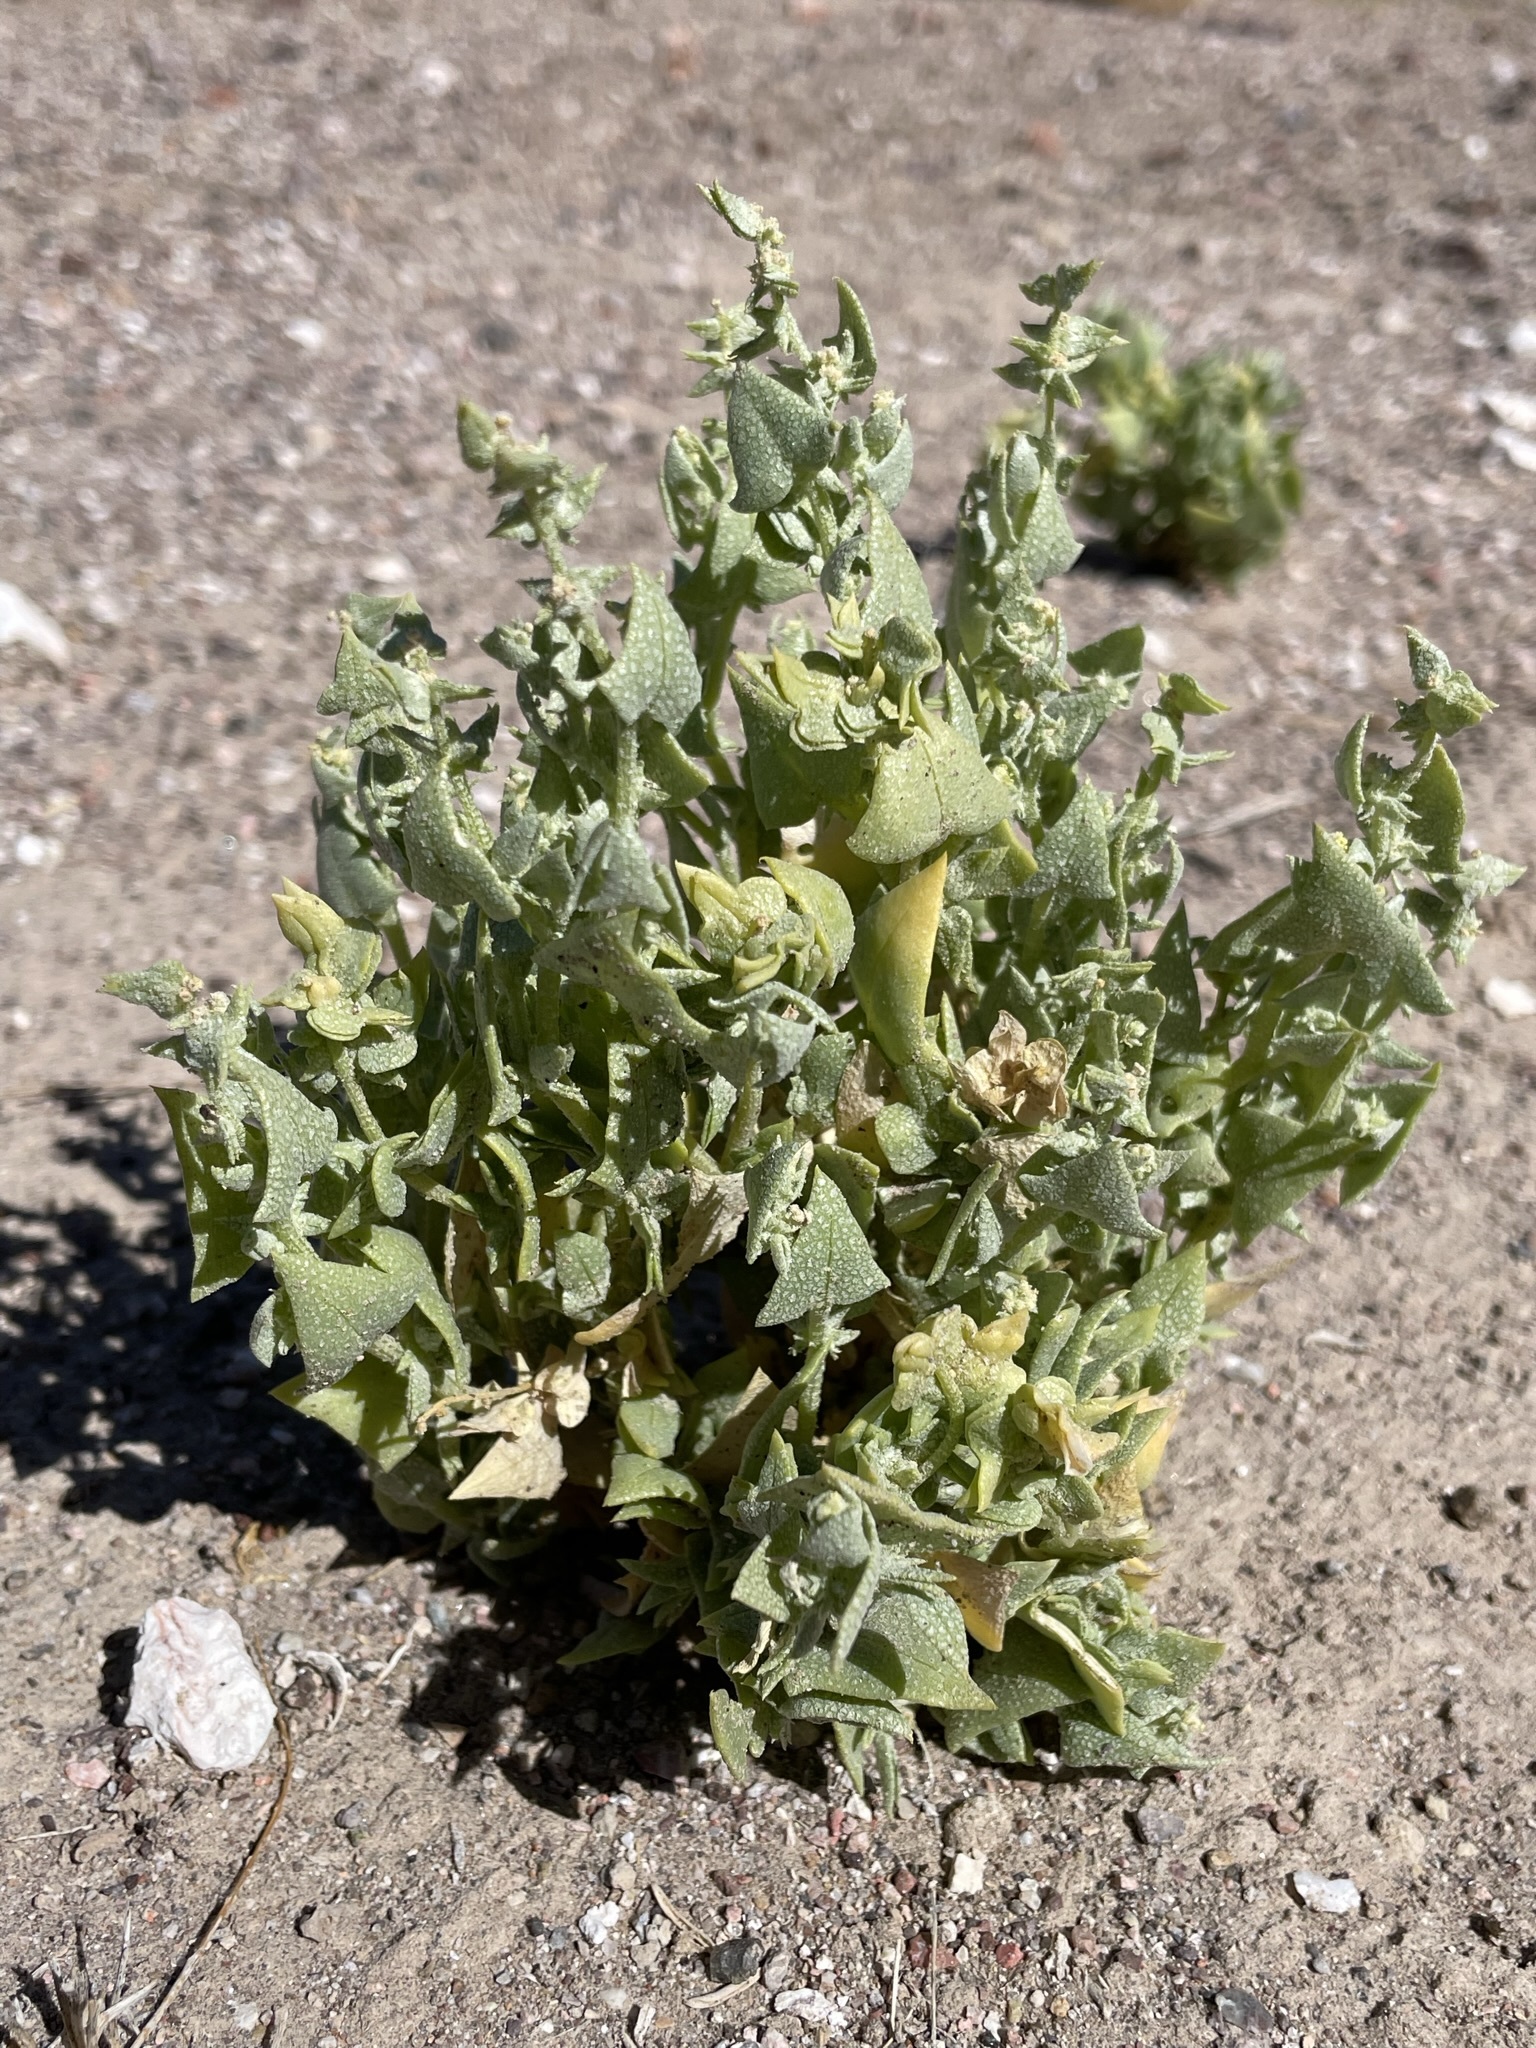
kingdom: Plantae
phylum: Tracheophyta
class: Magnoliopsida
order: Caryophyllales
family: Amaranthaceae
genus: Stutzia
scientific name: Stutzia covillei
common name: Coville's orach
